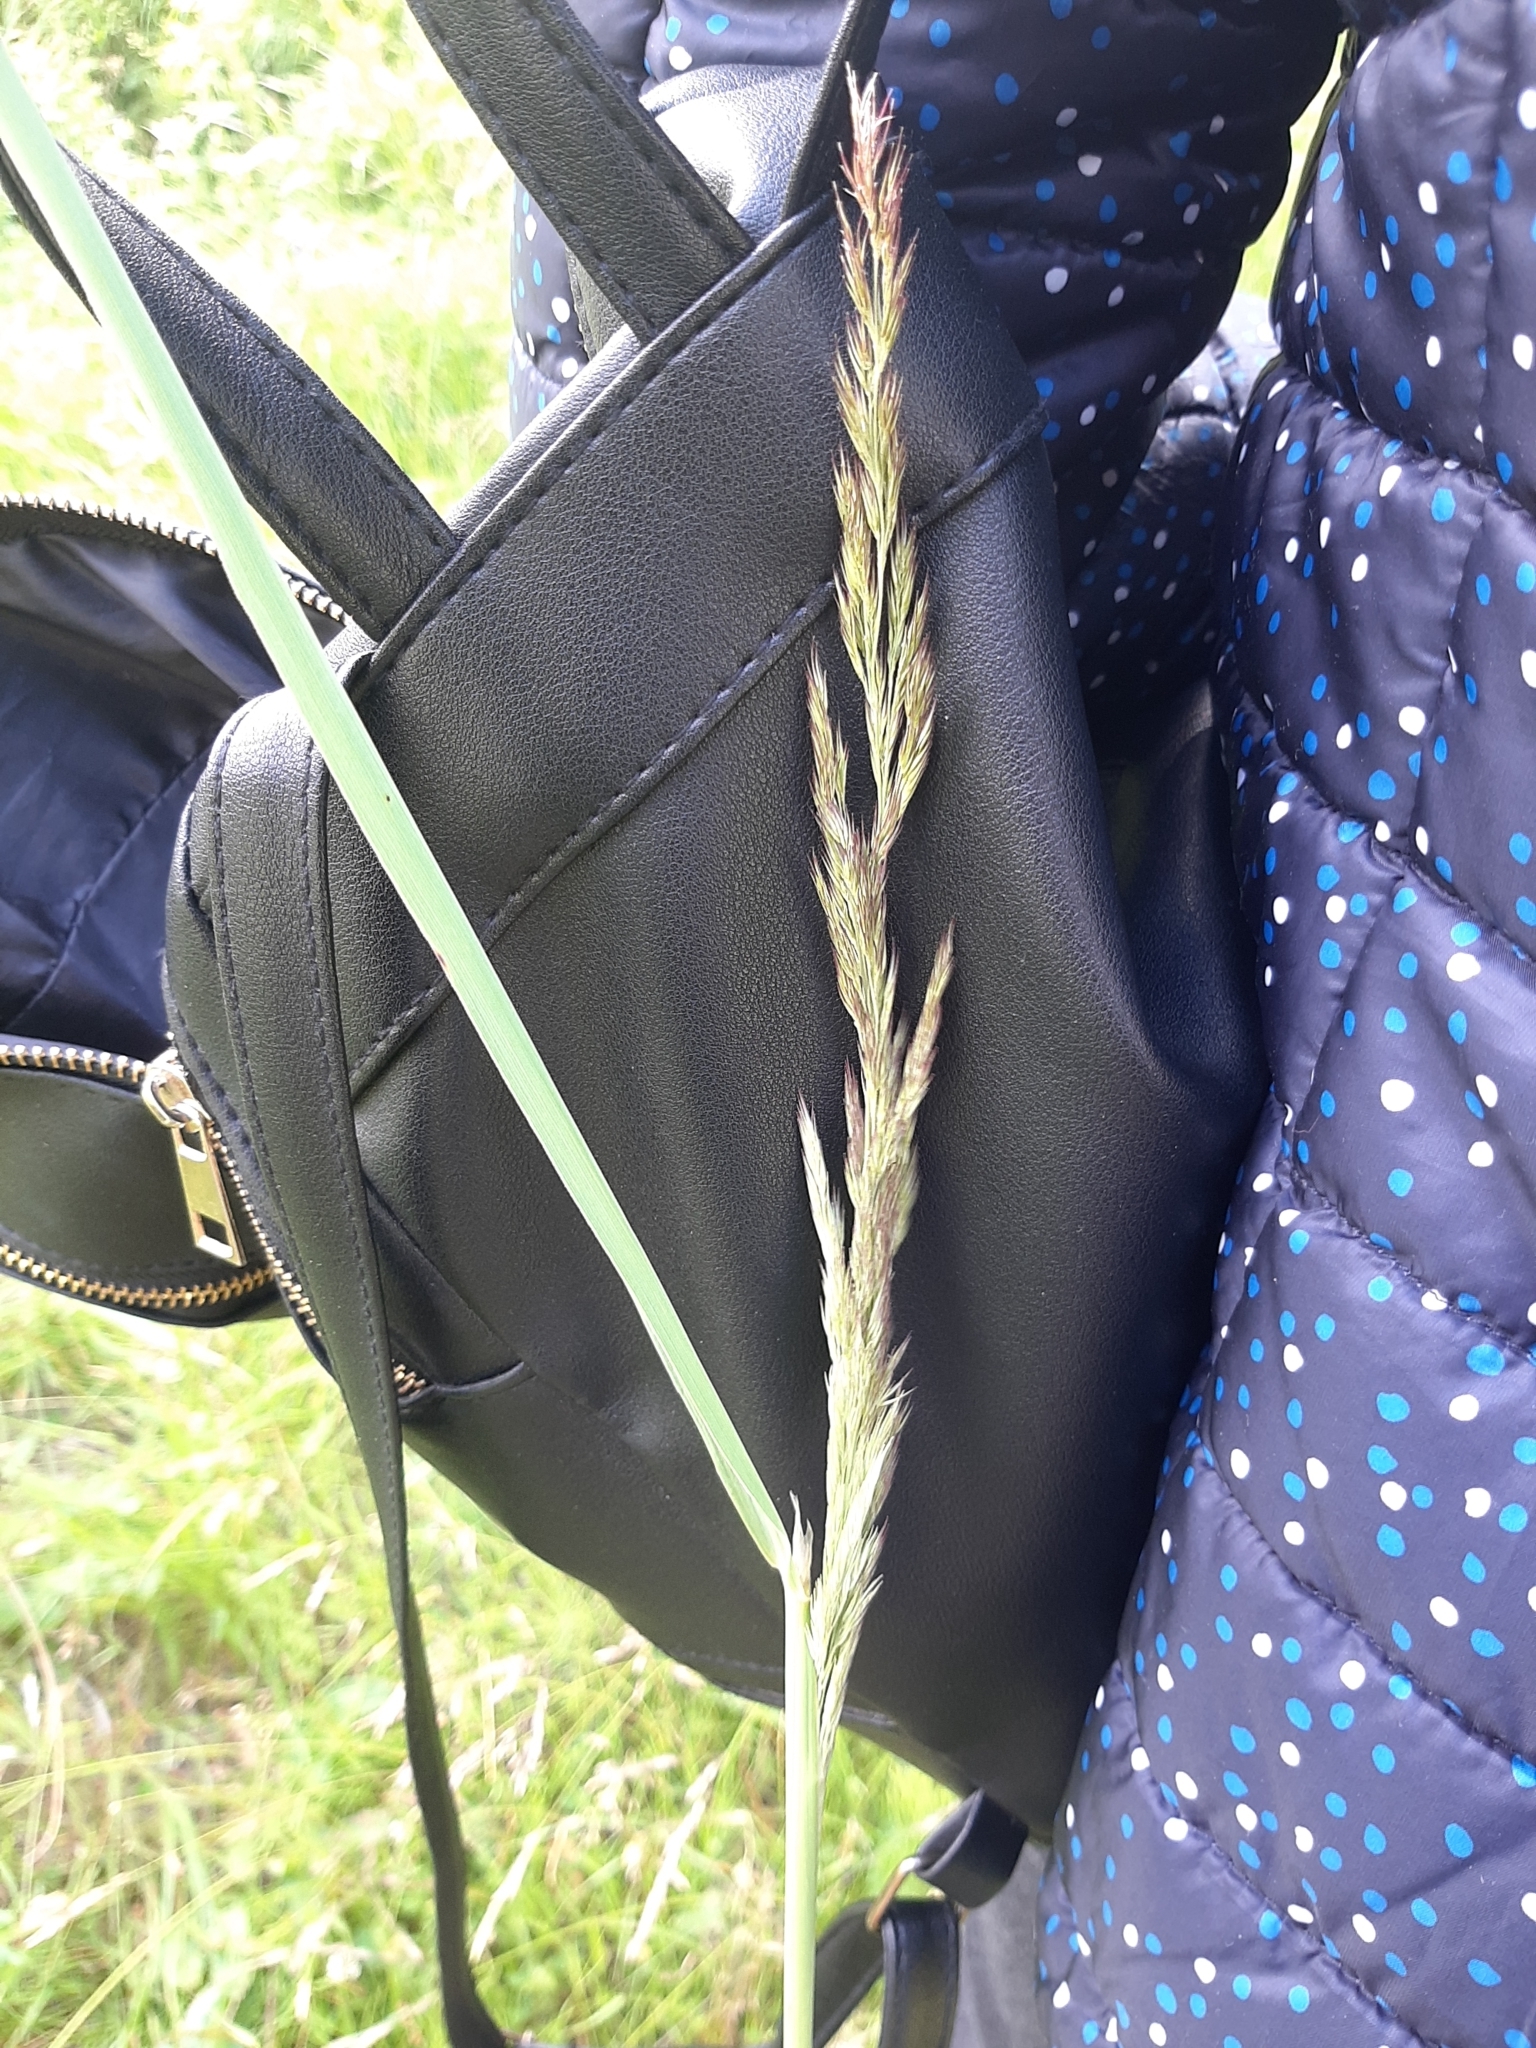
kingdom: Plantae
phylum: Tracheophyta
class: Liliopsida
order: Poales
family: Poaceae
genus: Calamagrostis
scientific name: Calamagrostis epigejos
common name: Wood small-reed
